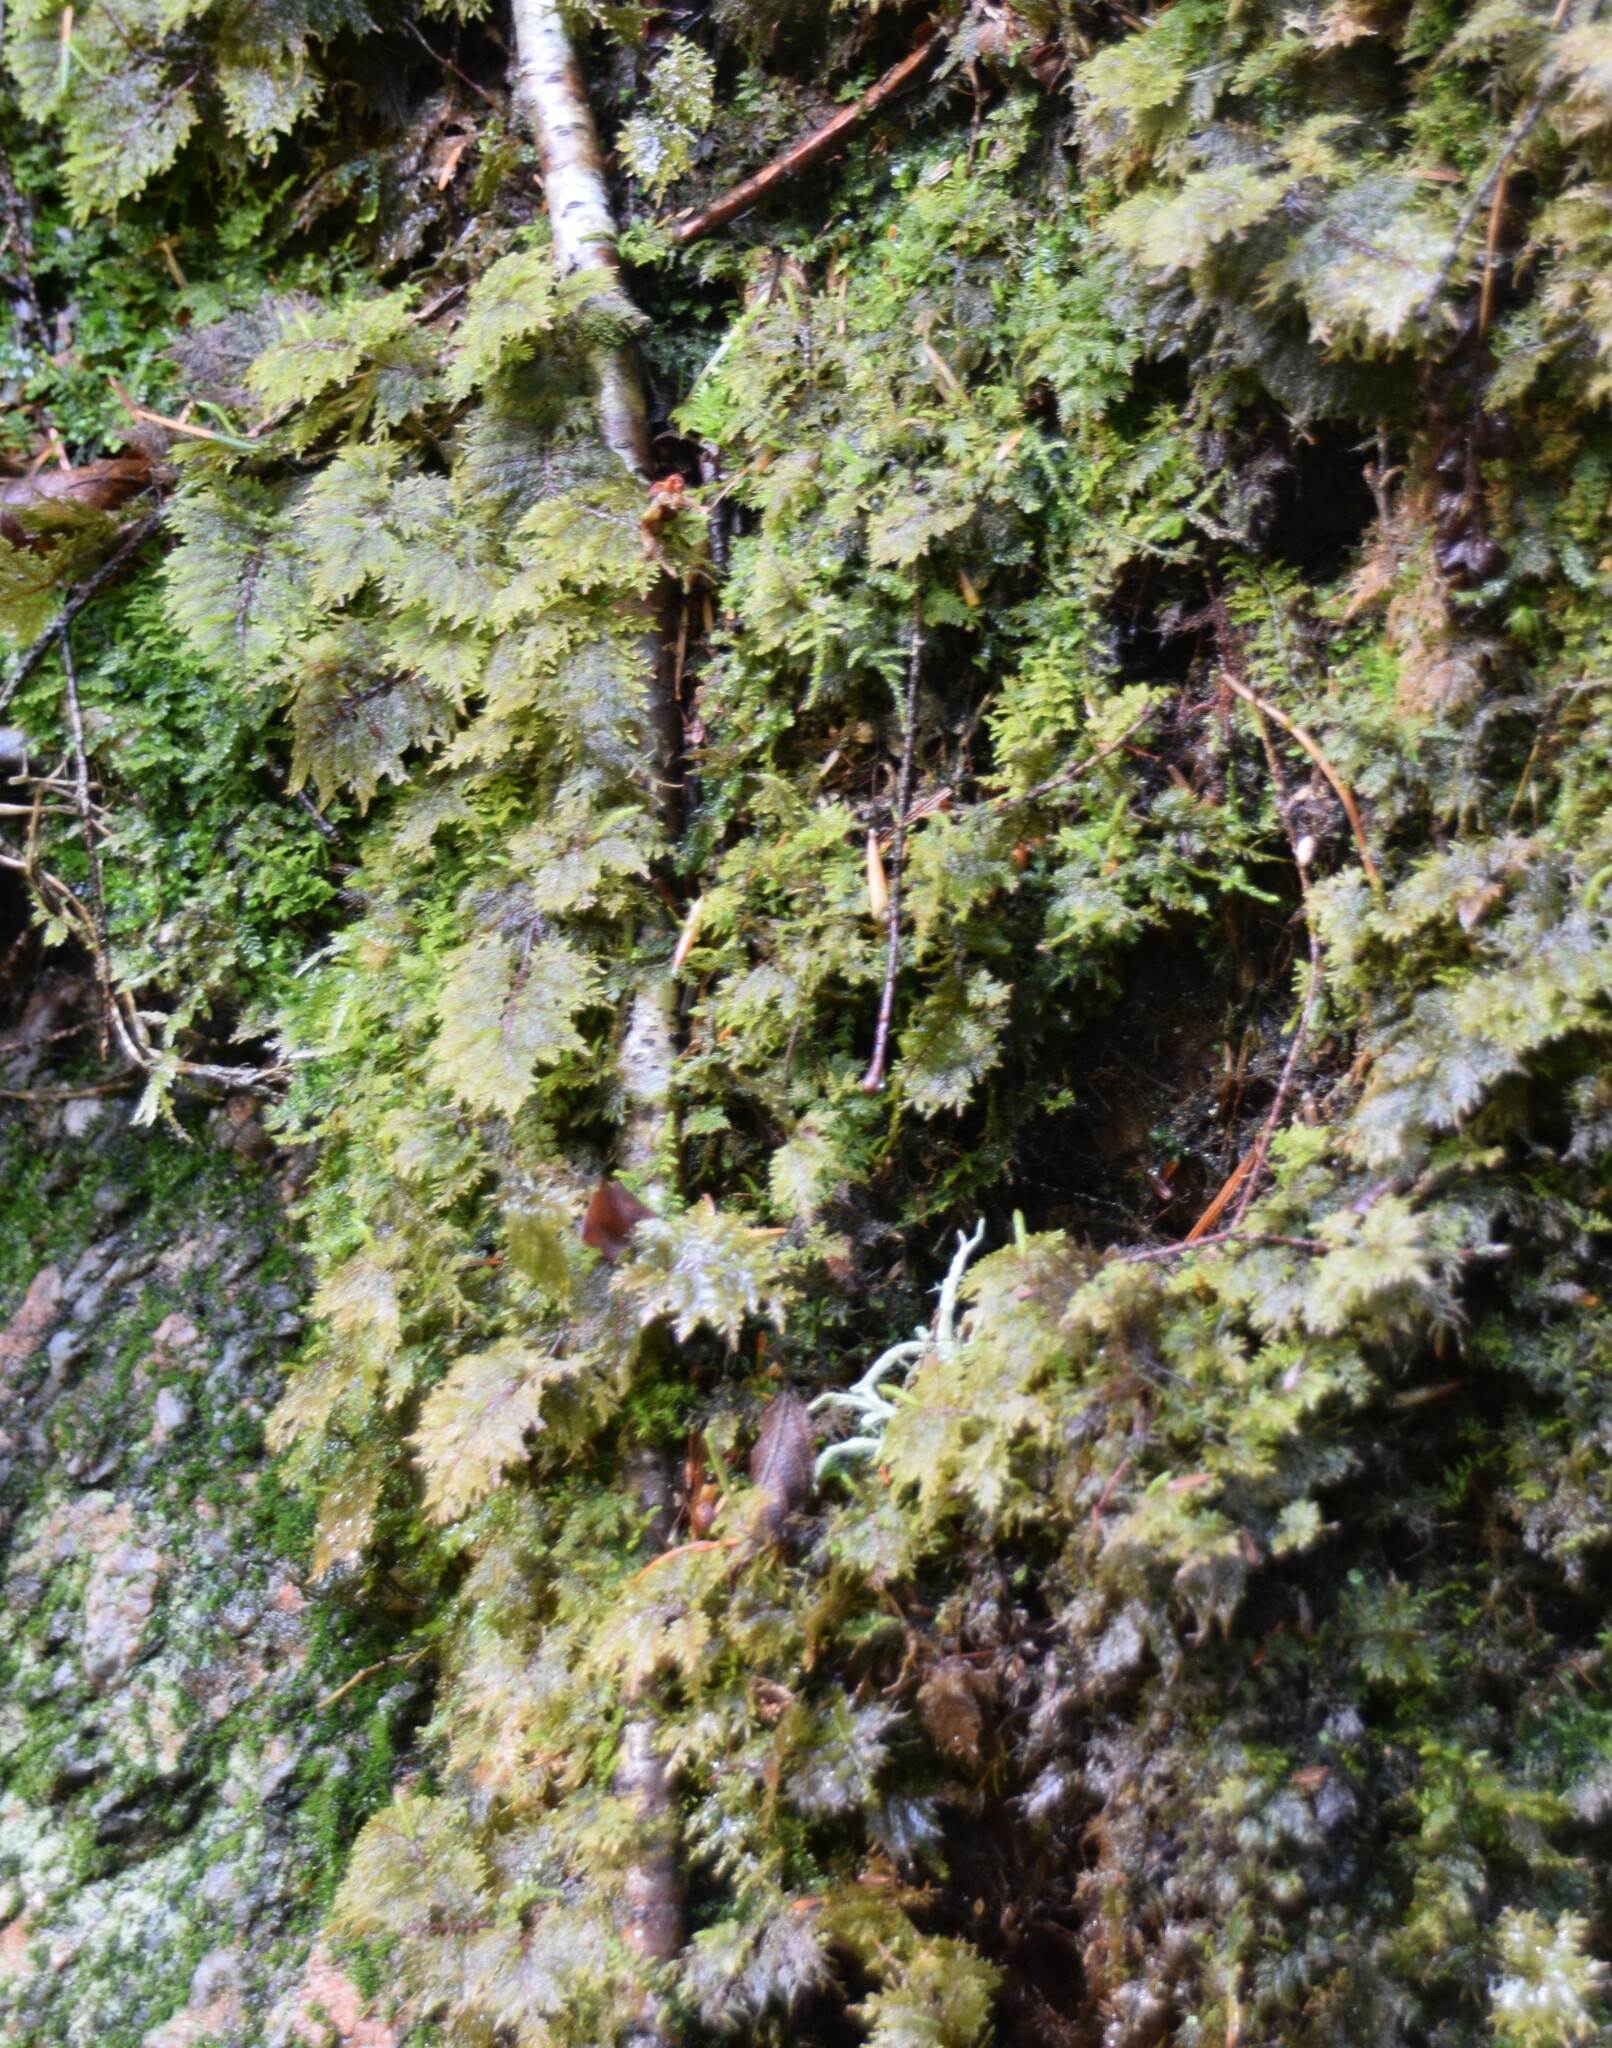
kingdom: Plantae
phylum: Bryophyta
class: Bryopsida
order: Hypnales
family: Hylocomiaceae
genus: Hylocomium
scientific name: Hylocomium splendens
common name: Stairstep moss
